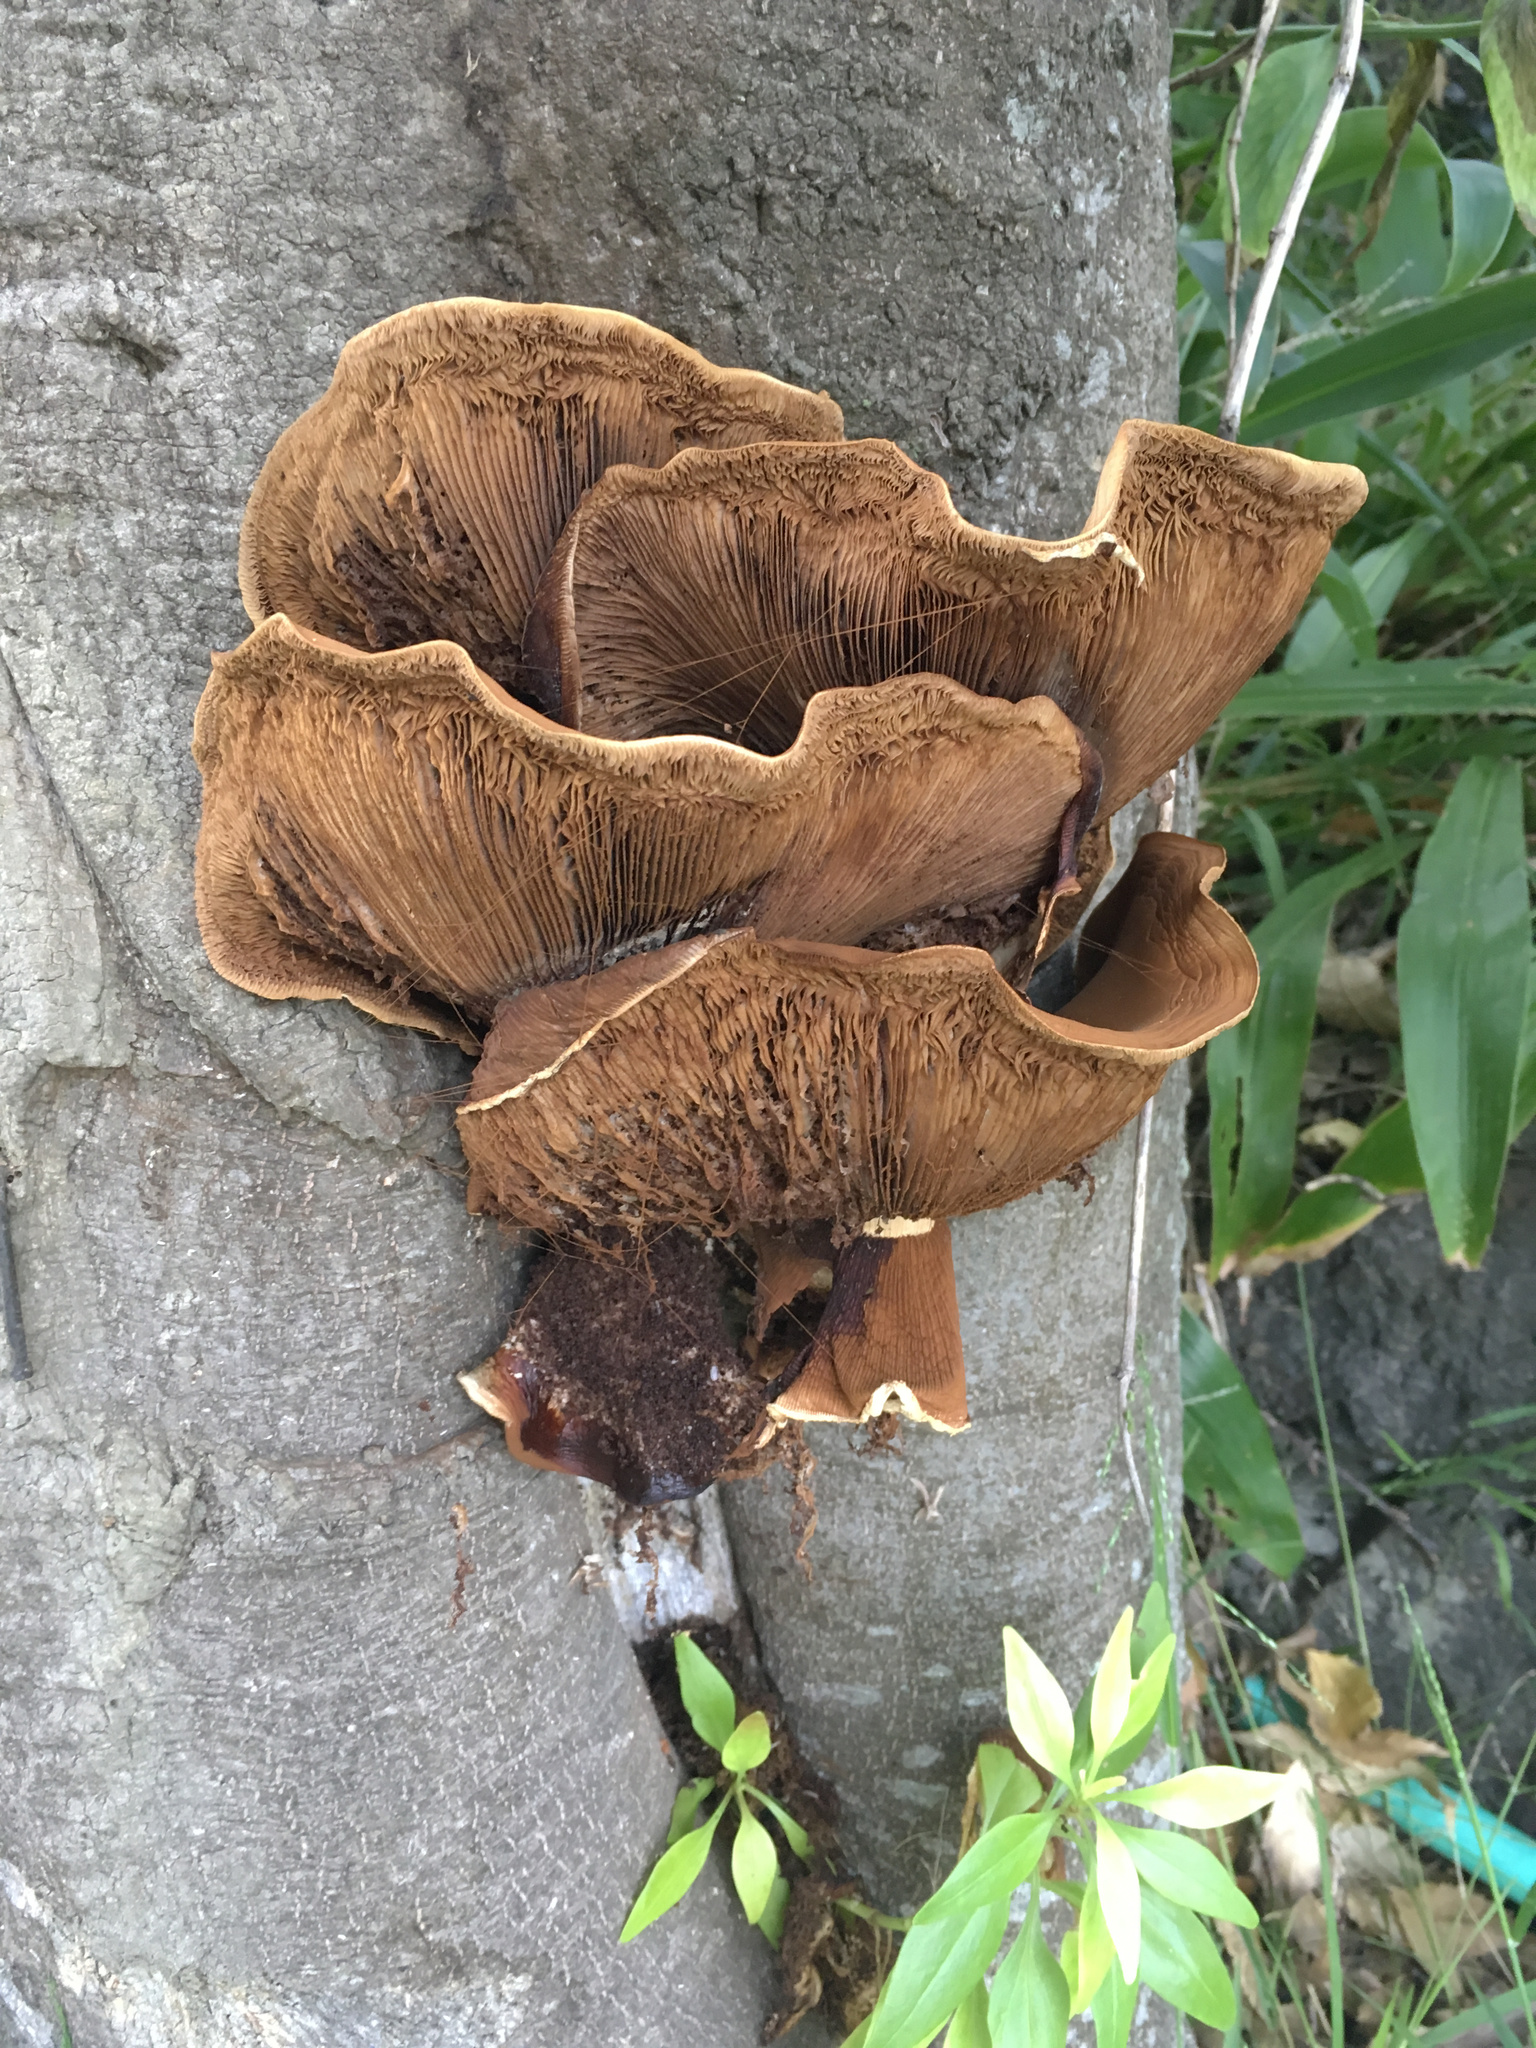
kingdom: Fungi
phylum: Basidiomycota
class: Agaricomycetes
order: Agaricales
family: Tubariaceae
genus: Cyclocybe
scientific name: Cyclocybe parasitica
